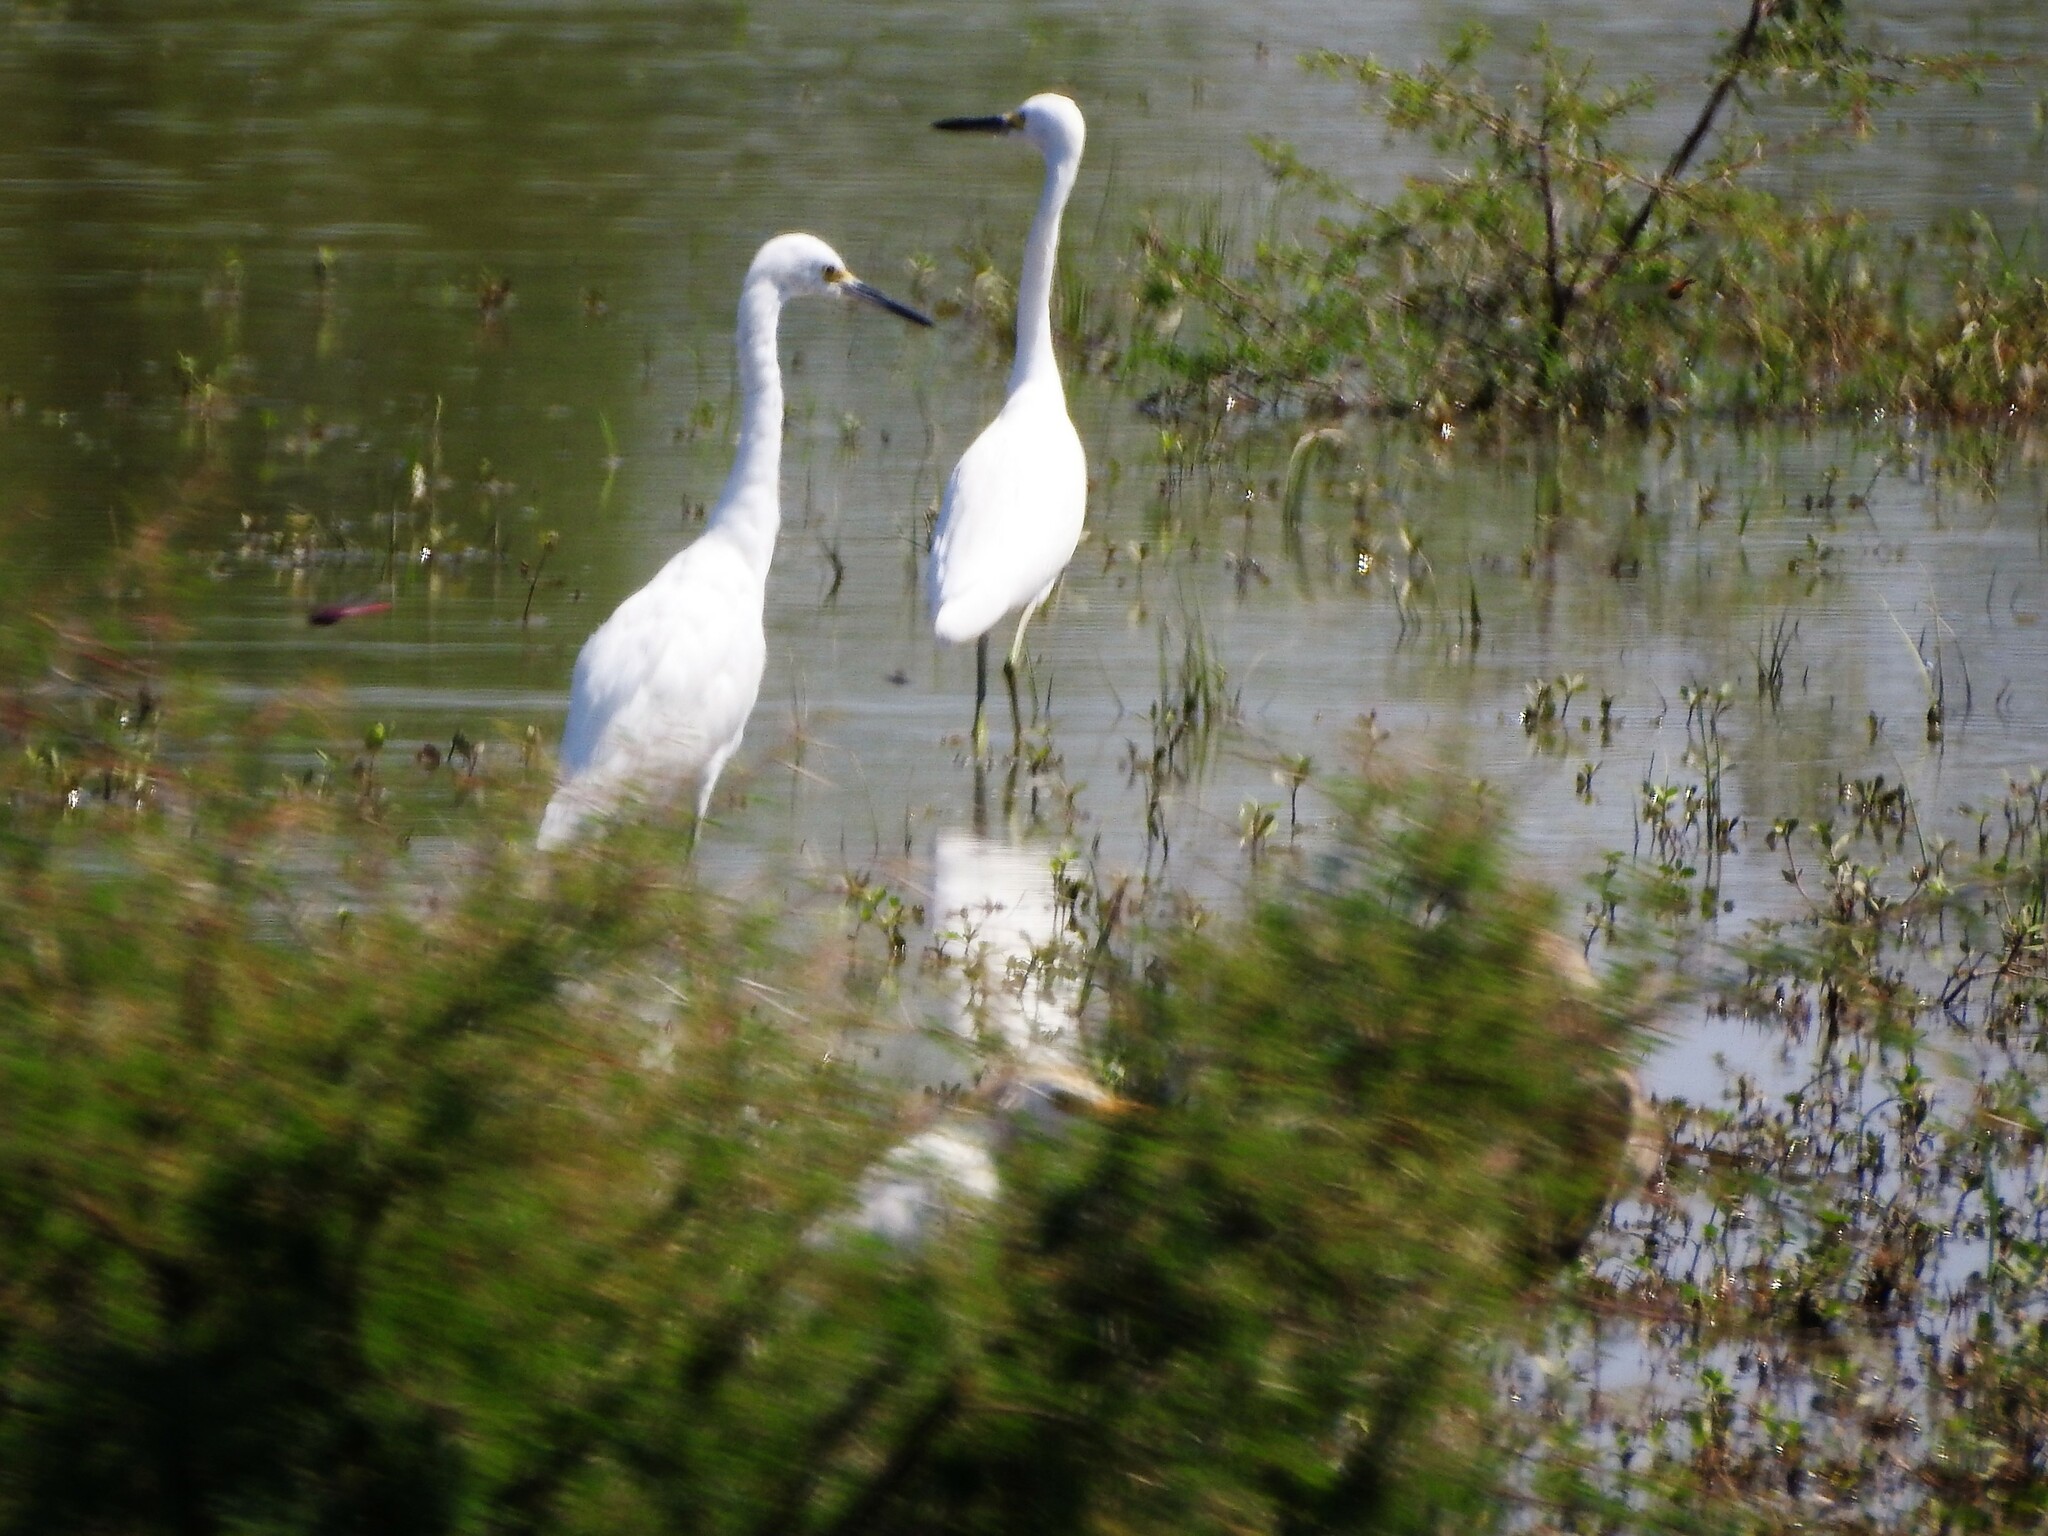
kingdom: Animalia
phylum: Chordata
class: Aves
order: Pelecaniformes
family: Ardeidae
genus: Egretta
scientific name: Egretta thula
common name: Snowy egret
